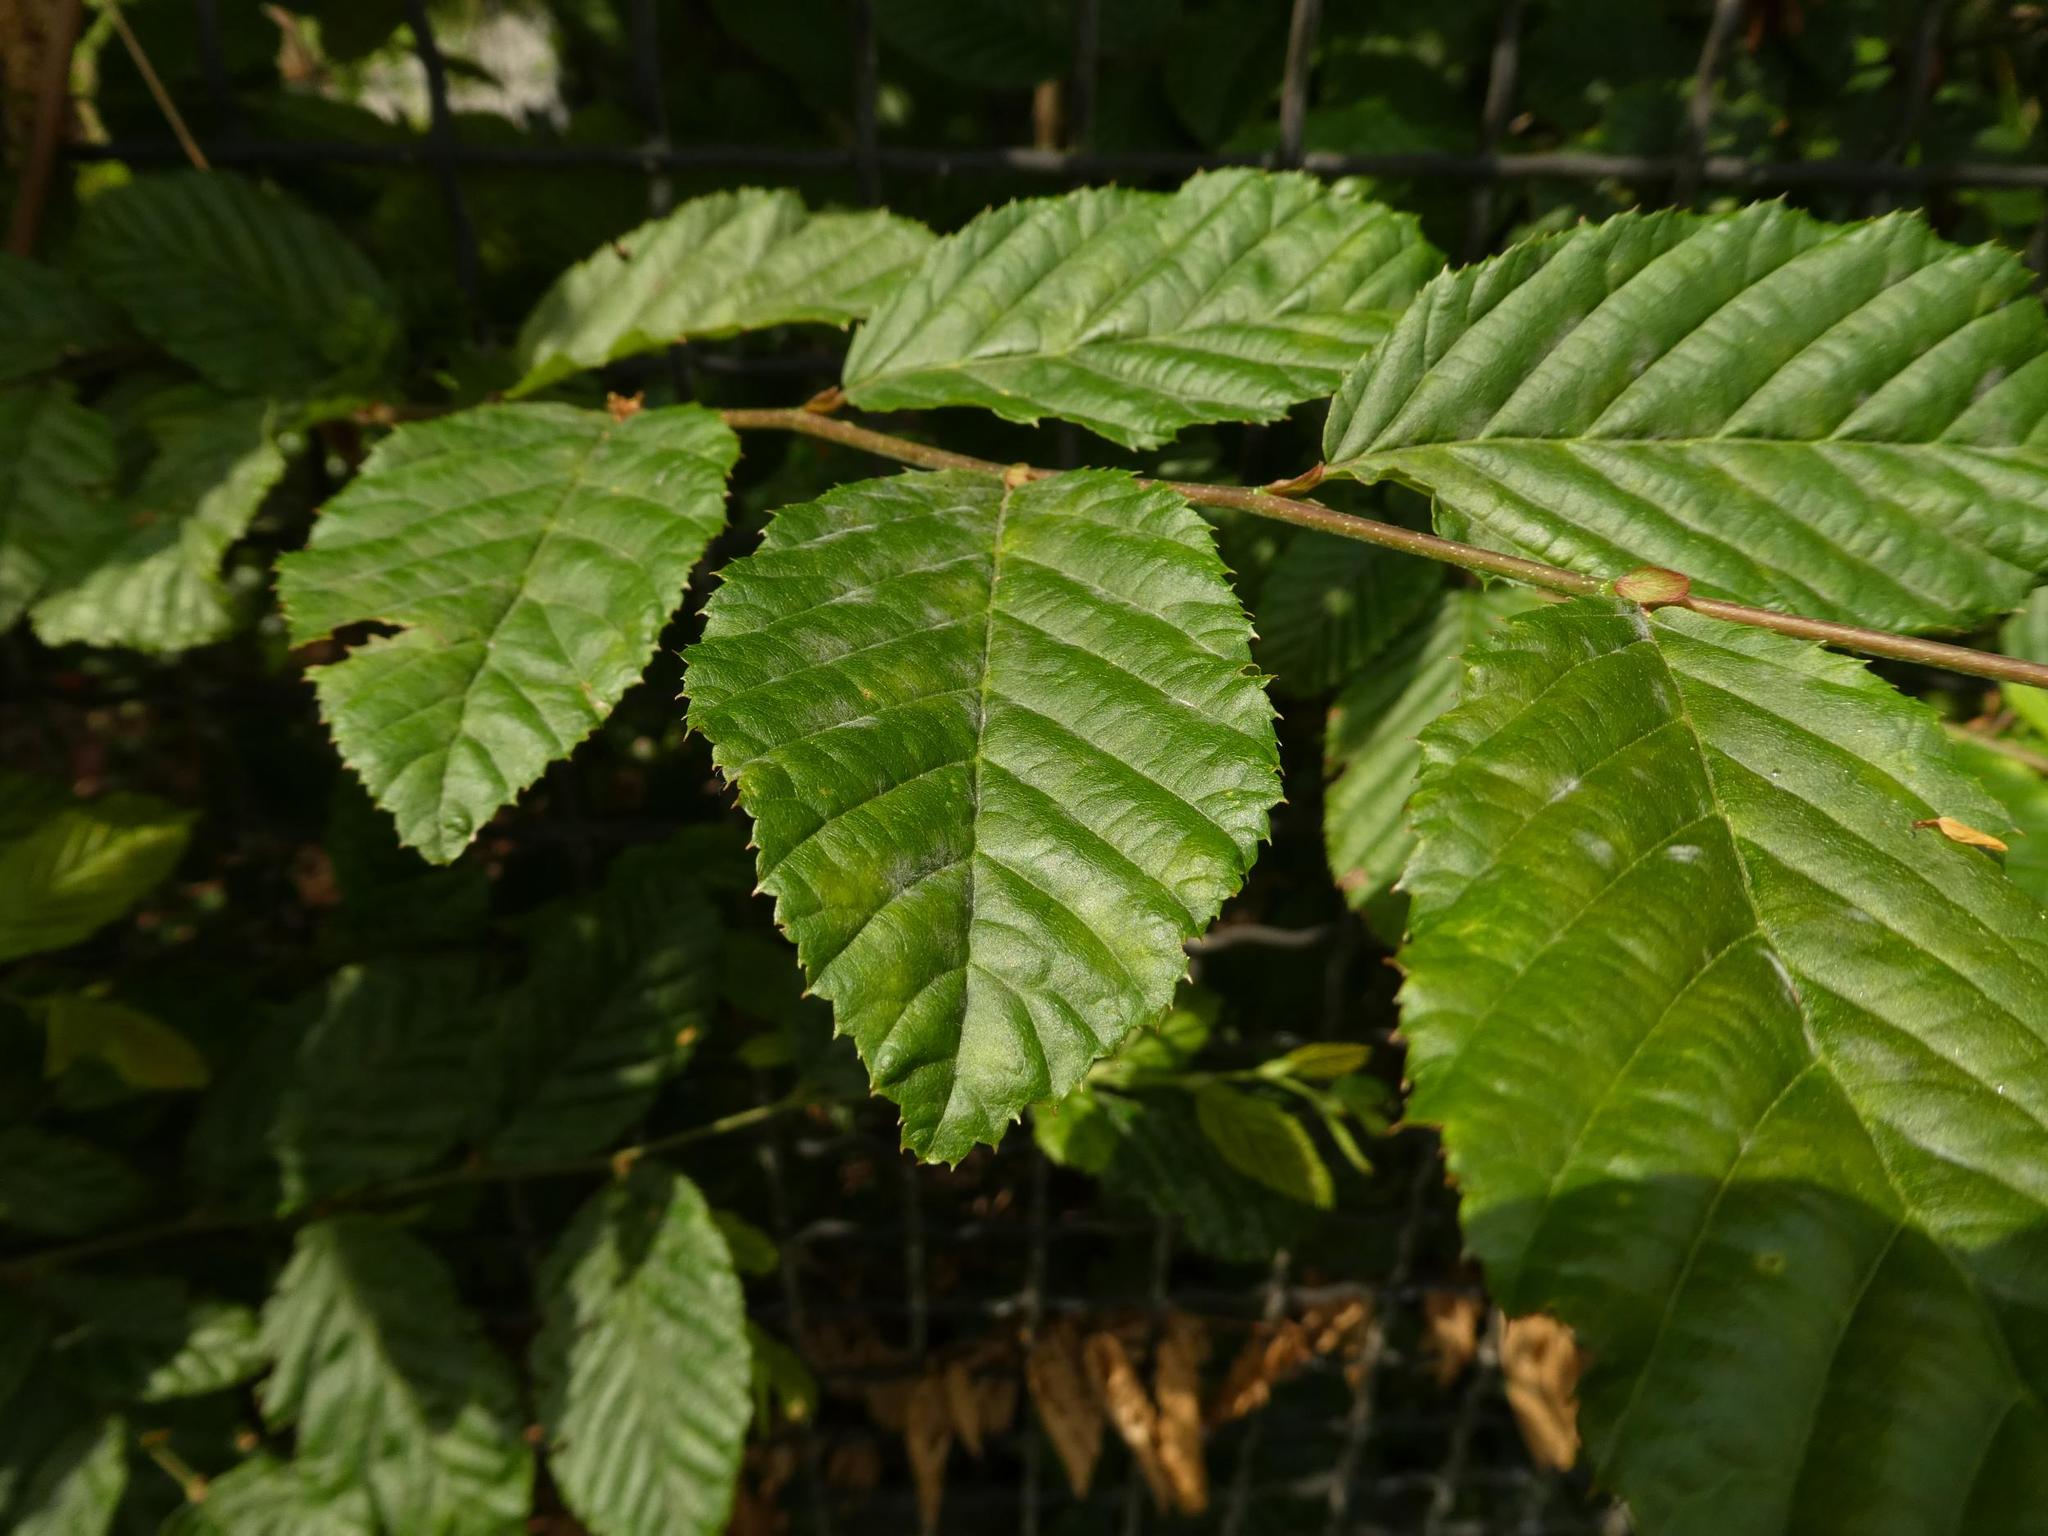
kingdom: Plantae
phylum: Tracheophyta
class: Magnoliopsida
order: Fagales
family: Betulaceae
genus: Carpinus
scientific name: Carpinus betulus
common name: Hornbeam
